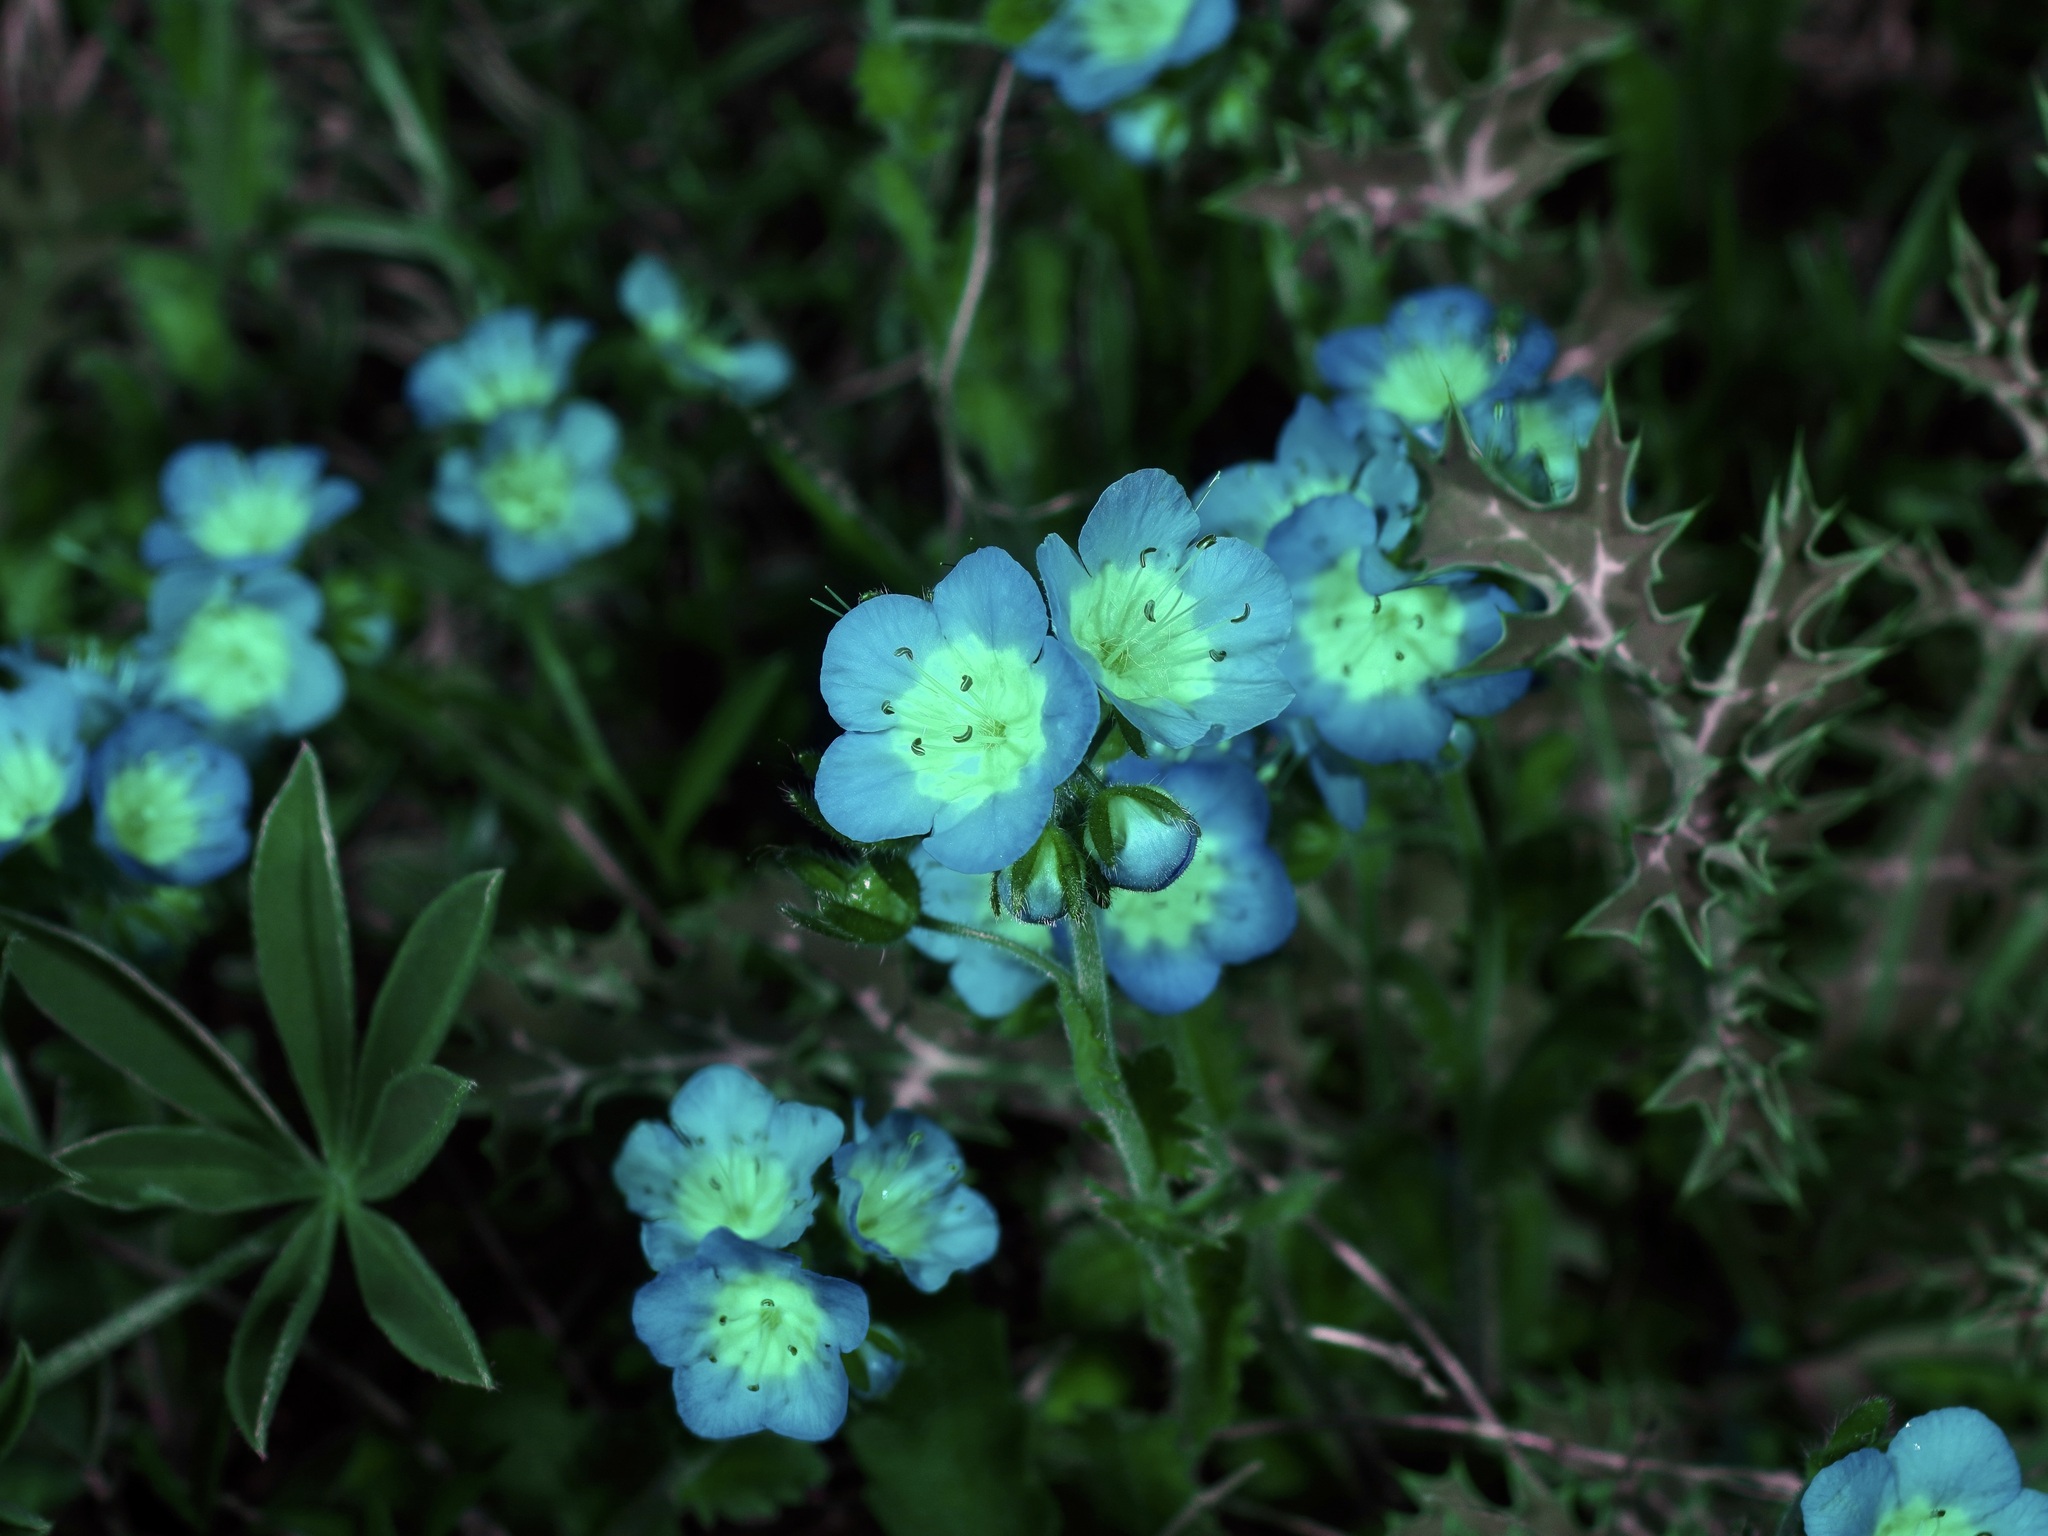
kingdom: Plantae
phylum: Tracheophyta
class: Magnoliopsida
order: Boraginales
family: Hydrophyllaceae
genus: Phacelia
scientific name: Phacelia patuliflora
